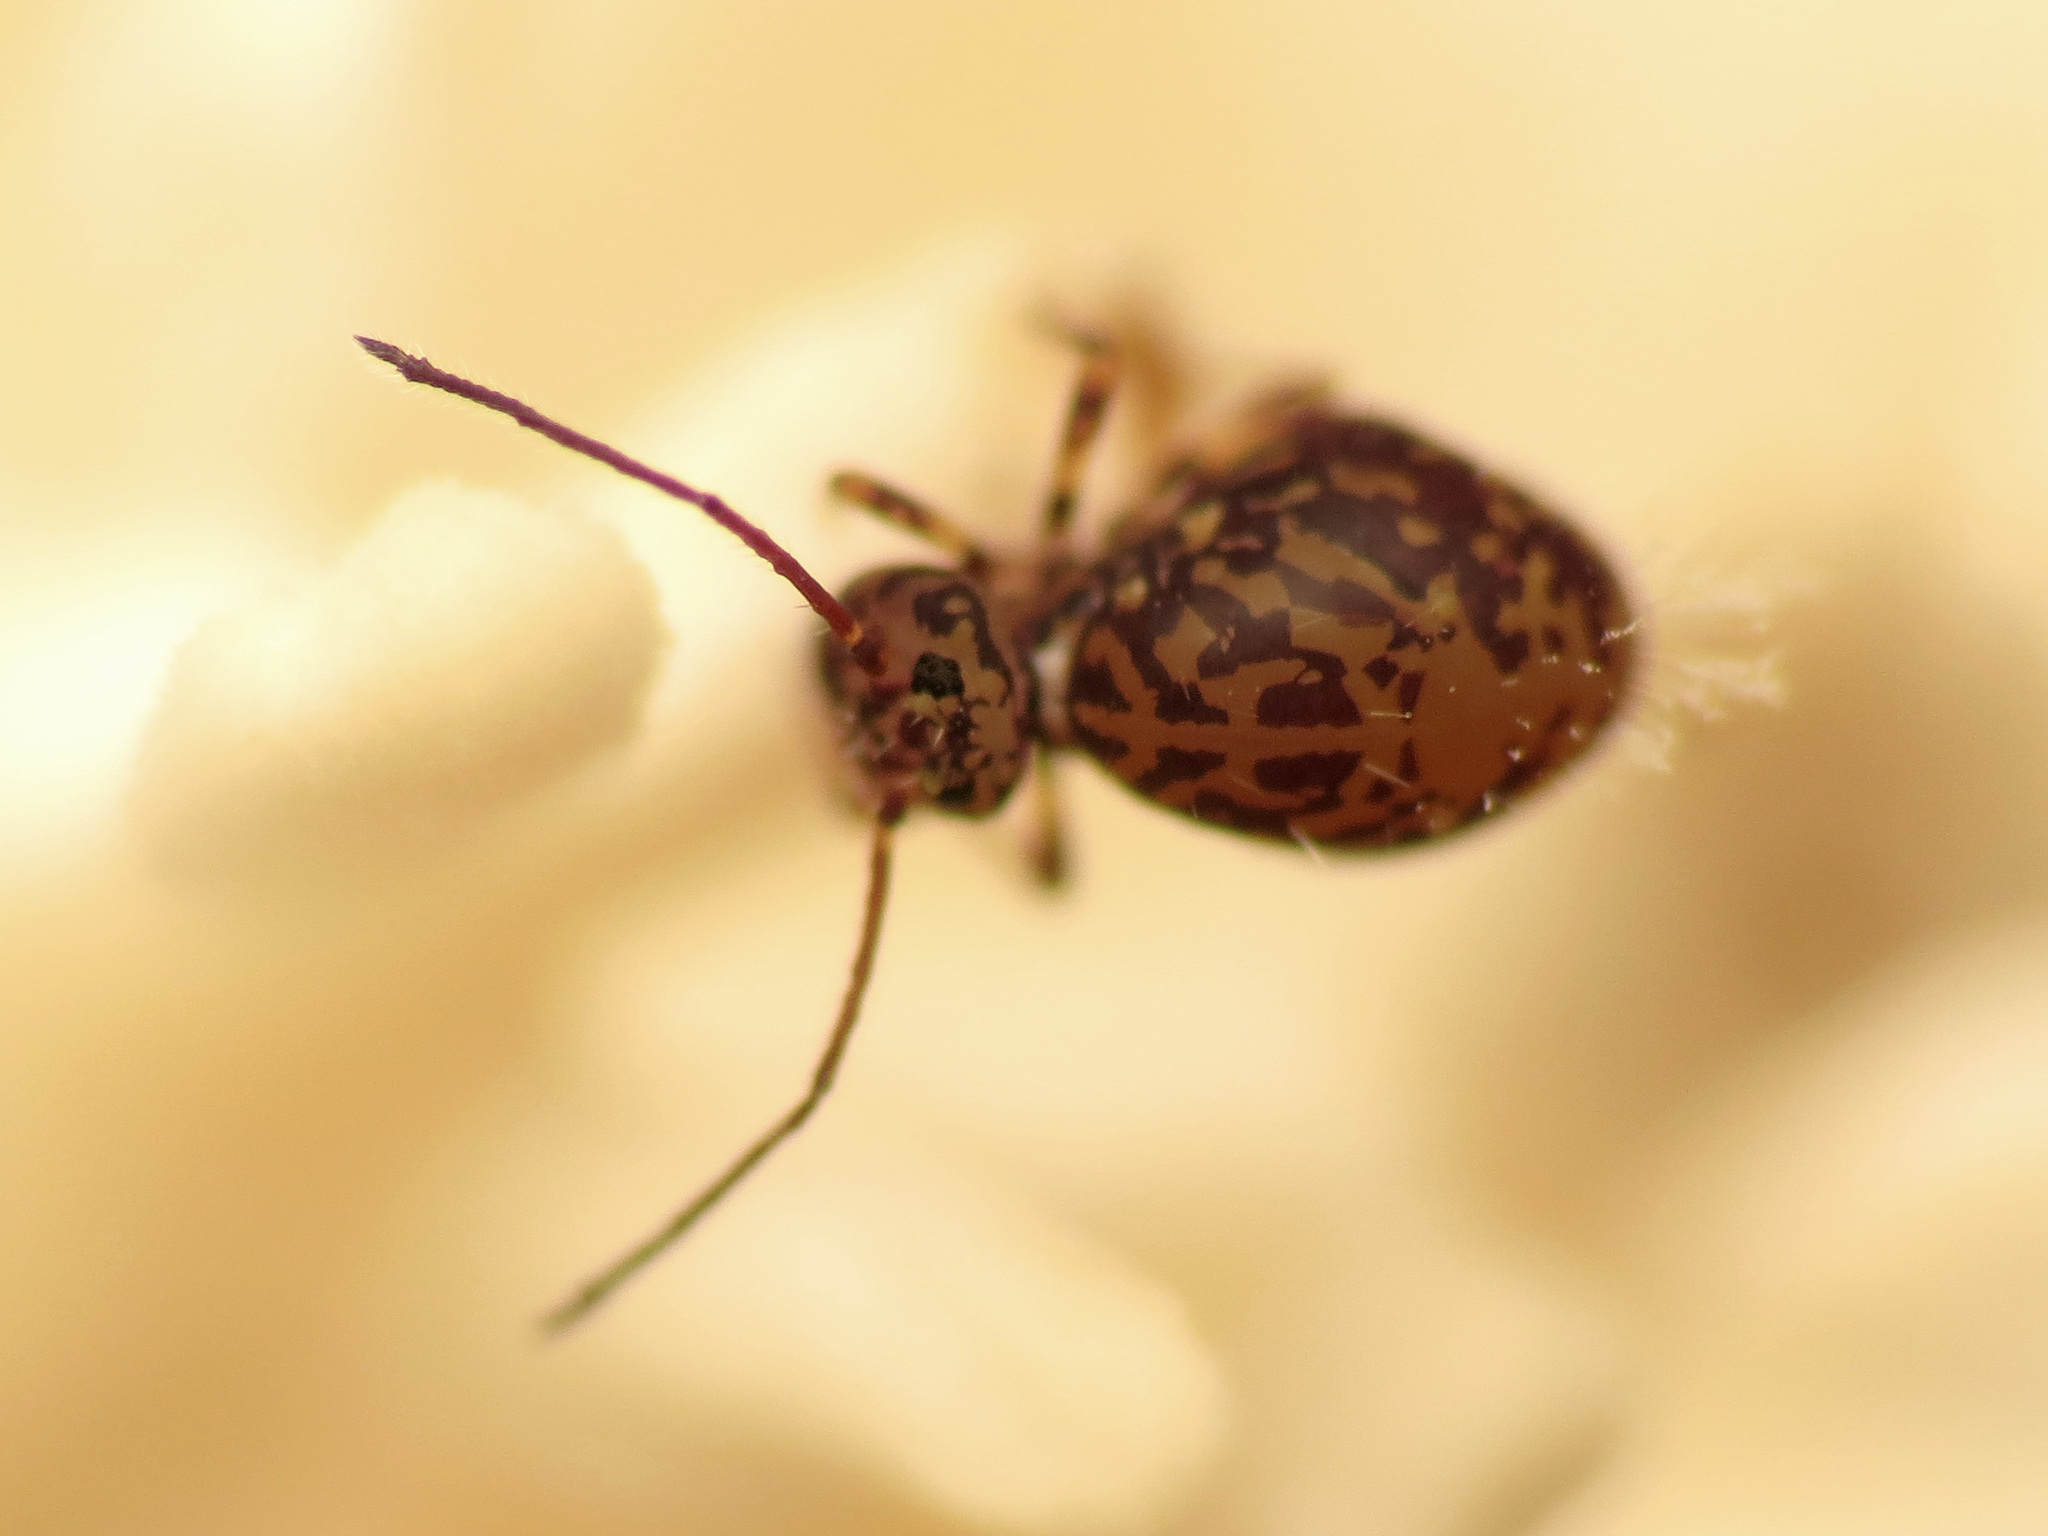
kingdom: Animalia
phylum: Arthropoda
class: Collembola
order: Symphypleona
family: Dicyrtomidae
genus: Ptenothrix
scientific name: Ptenothrix marmorata
